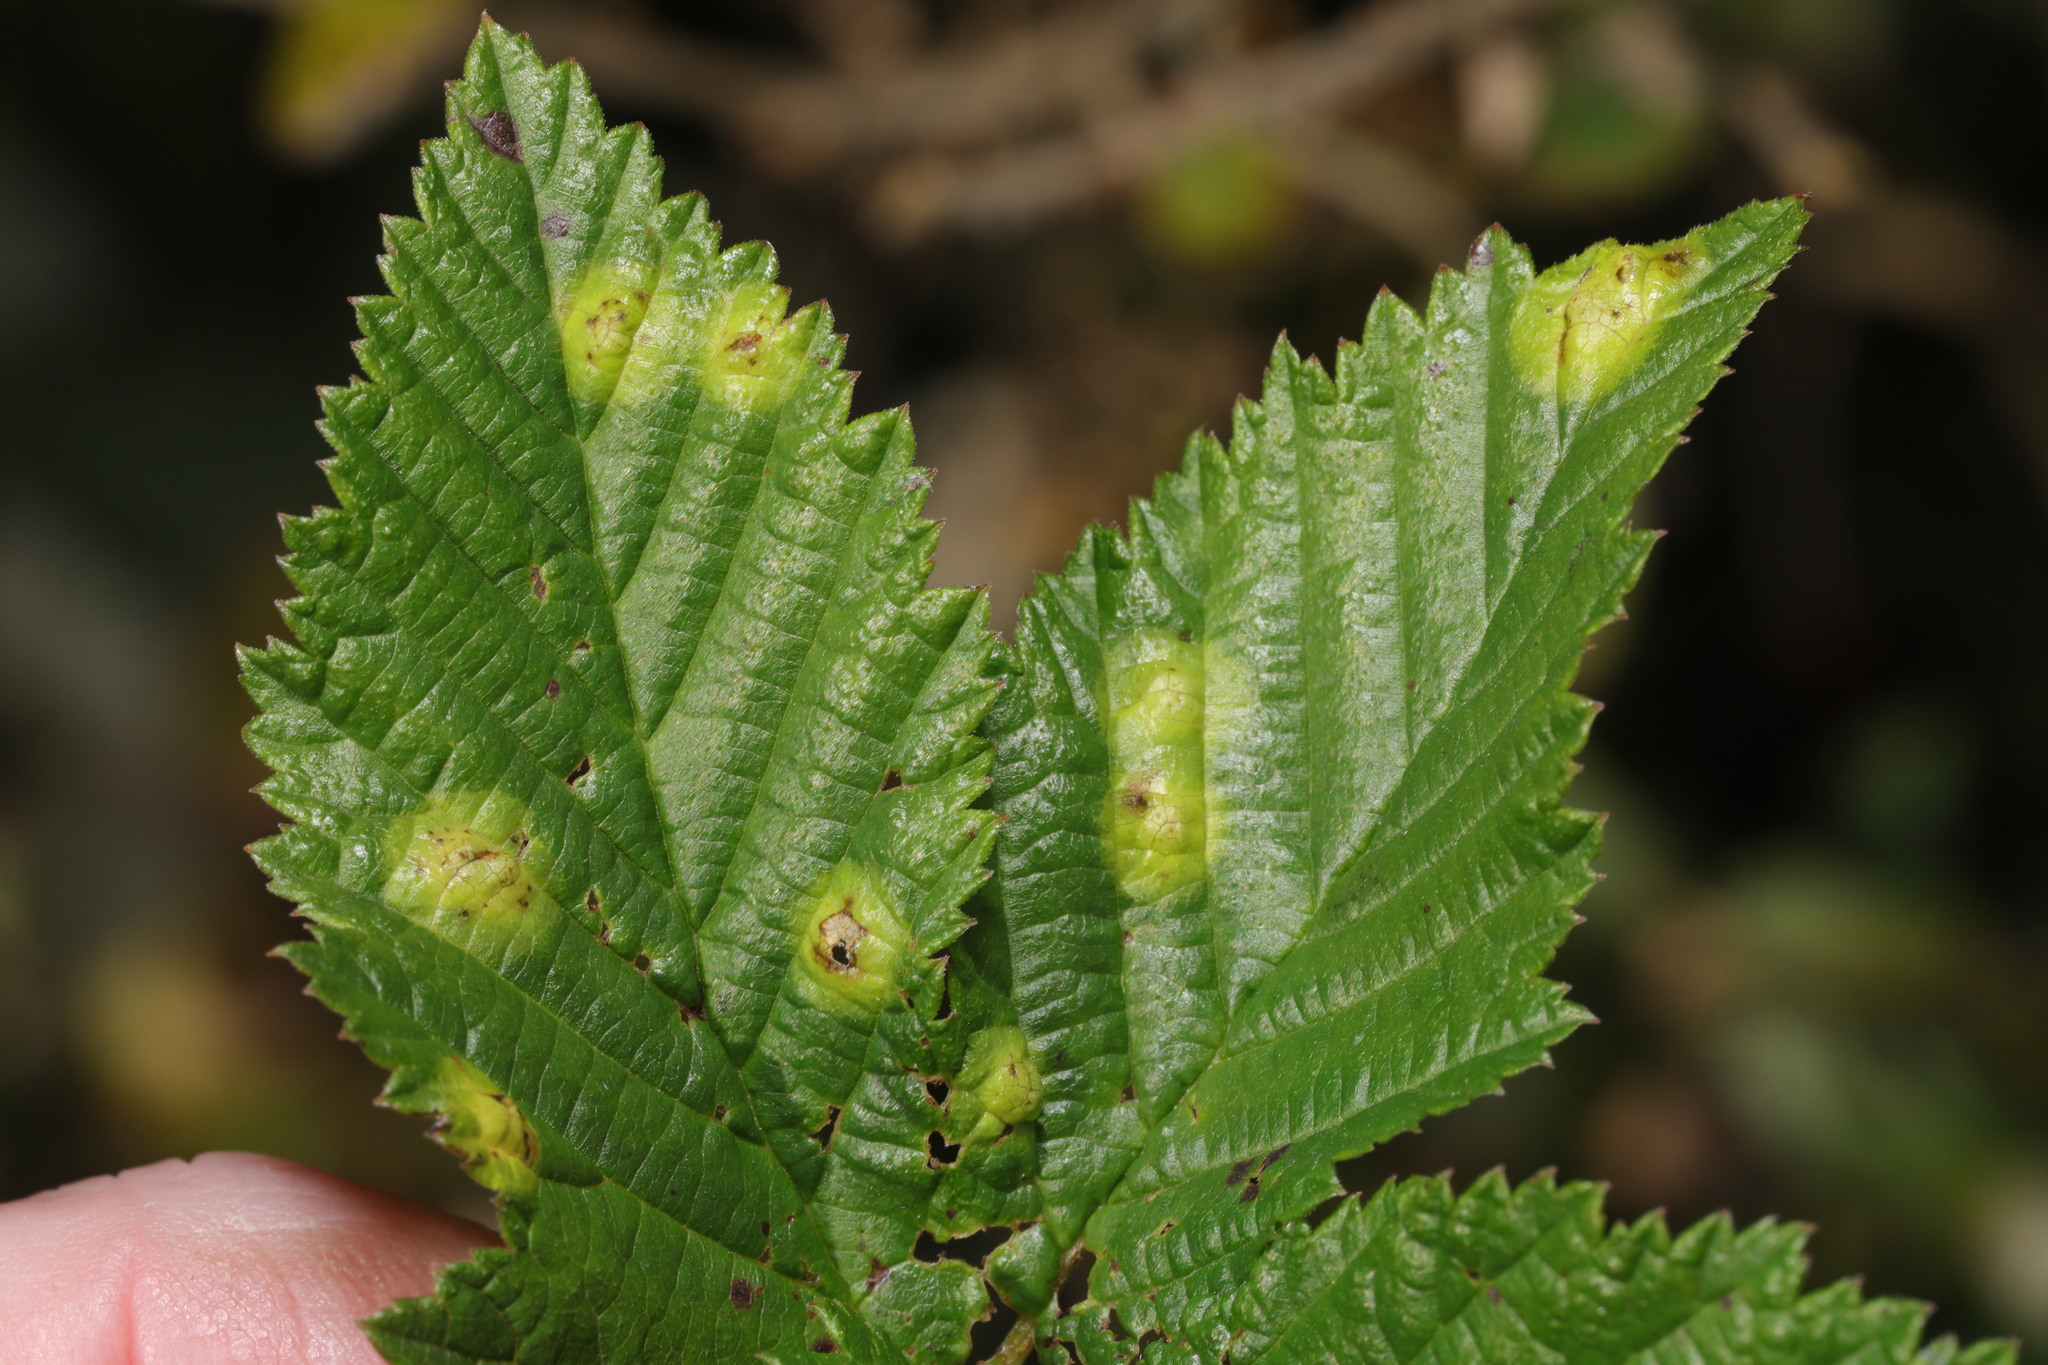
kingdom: Animalia
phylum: Arthropoda
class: Insecta
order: Diptera
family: Cecidomyiidae
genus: Dasineura
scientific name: Dasineura pustulans
